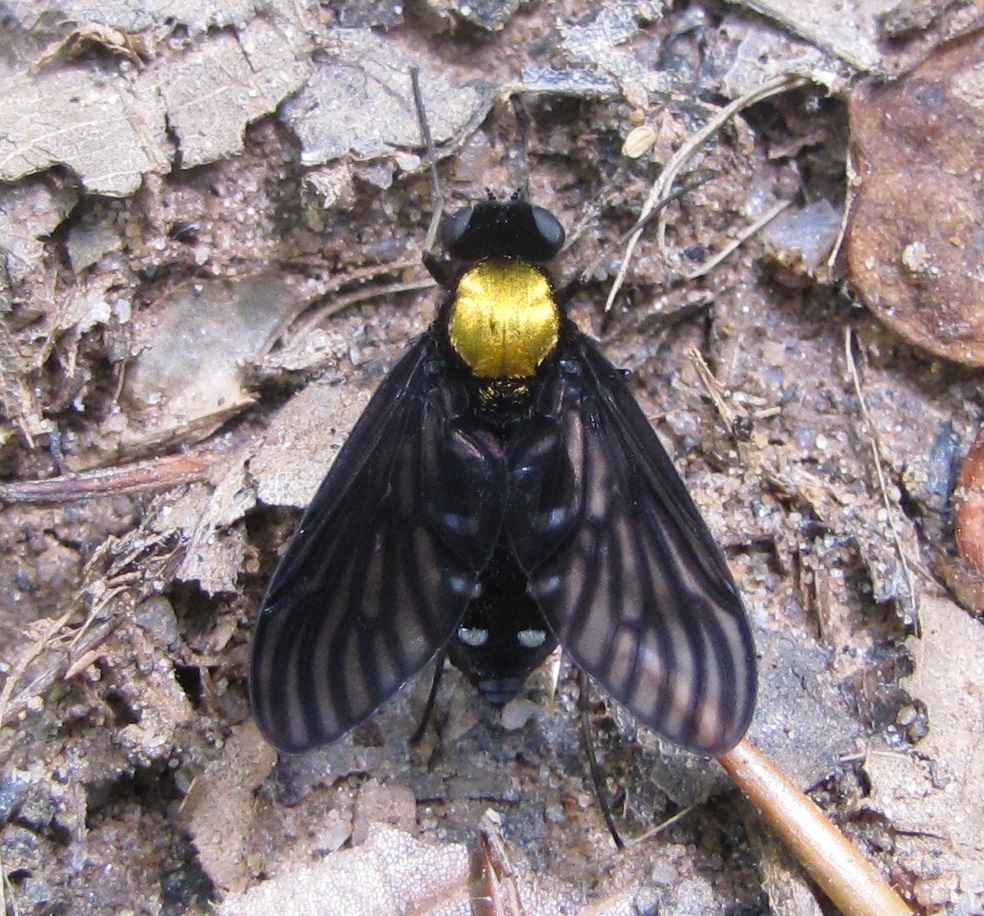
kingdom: Animalia
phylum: Arthropoda
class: Insecta
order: Diptera
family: Rhagionidae
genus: Chrysopilus
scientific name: Chrysopilus thoracicus
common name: Golden-backed snipe fly
